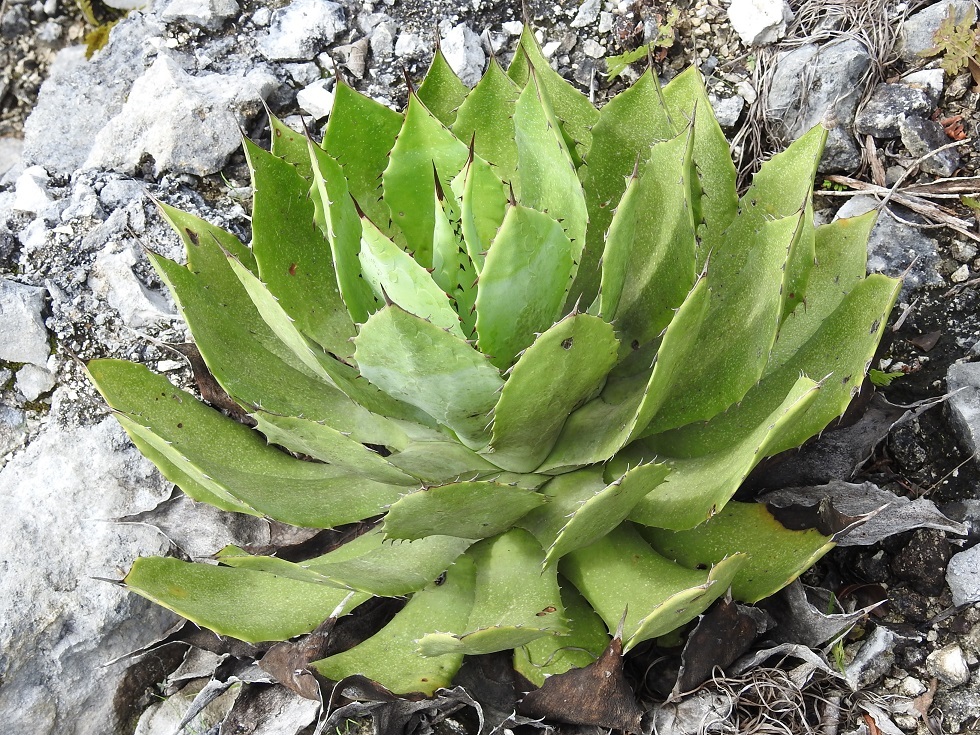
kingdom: Plantae
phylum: Tracheophyta
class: Liliopsida
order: Asparagales
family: Asparagaceae
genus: Agave
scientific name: Agave chiapensis
